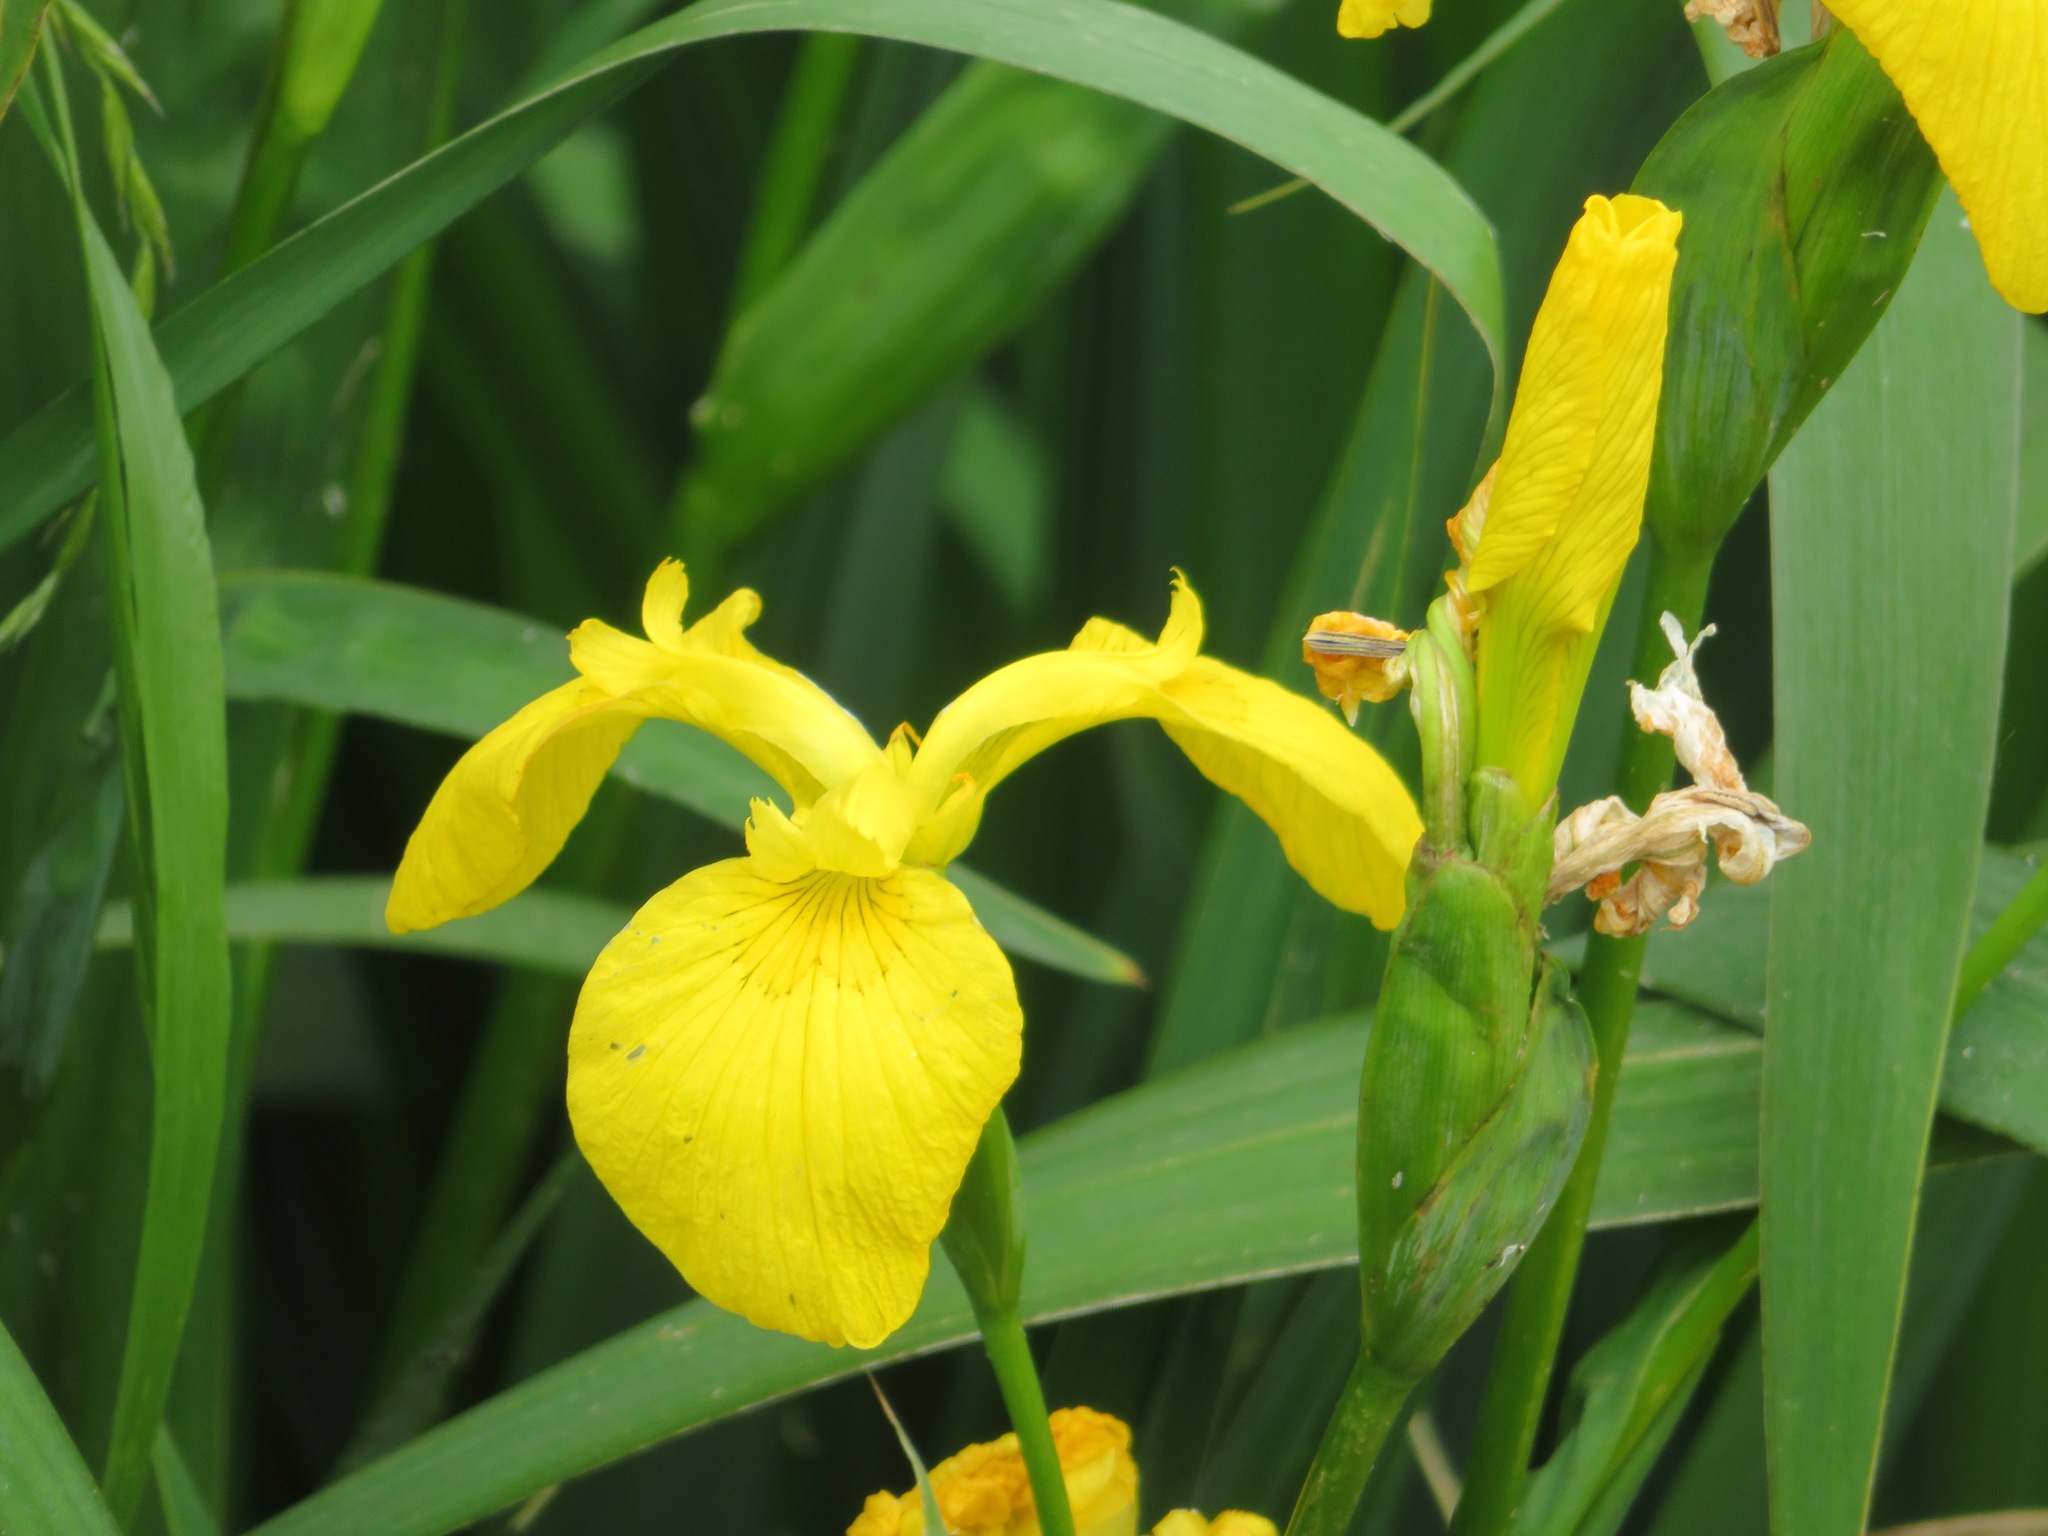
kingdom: Plantae
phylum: Tracheophyta
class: Liliopsida
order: Asparagales
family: Iridaceae
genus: Iris
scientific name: Iris pseudacorus
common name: Yellow flag
